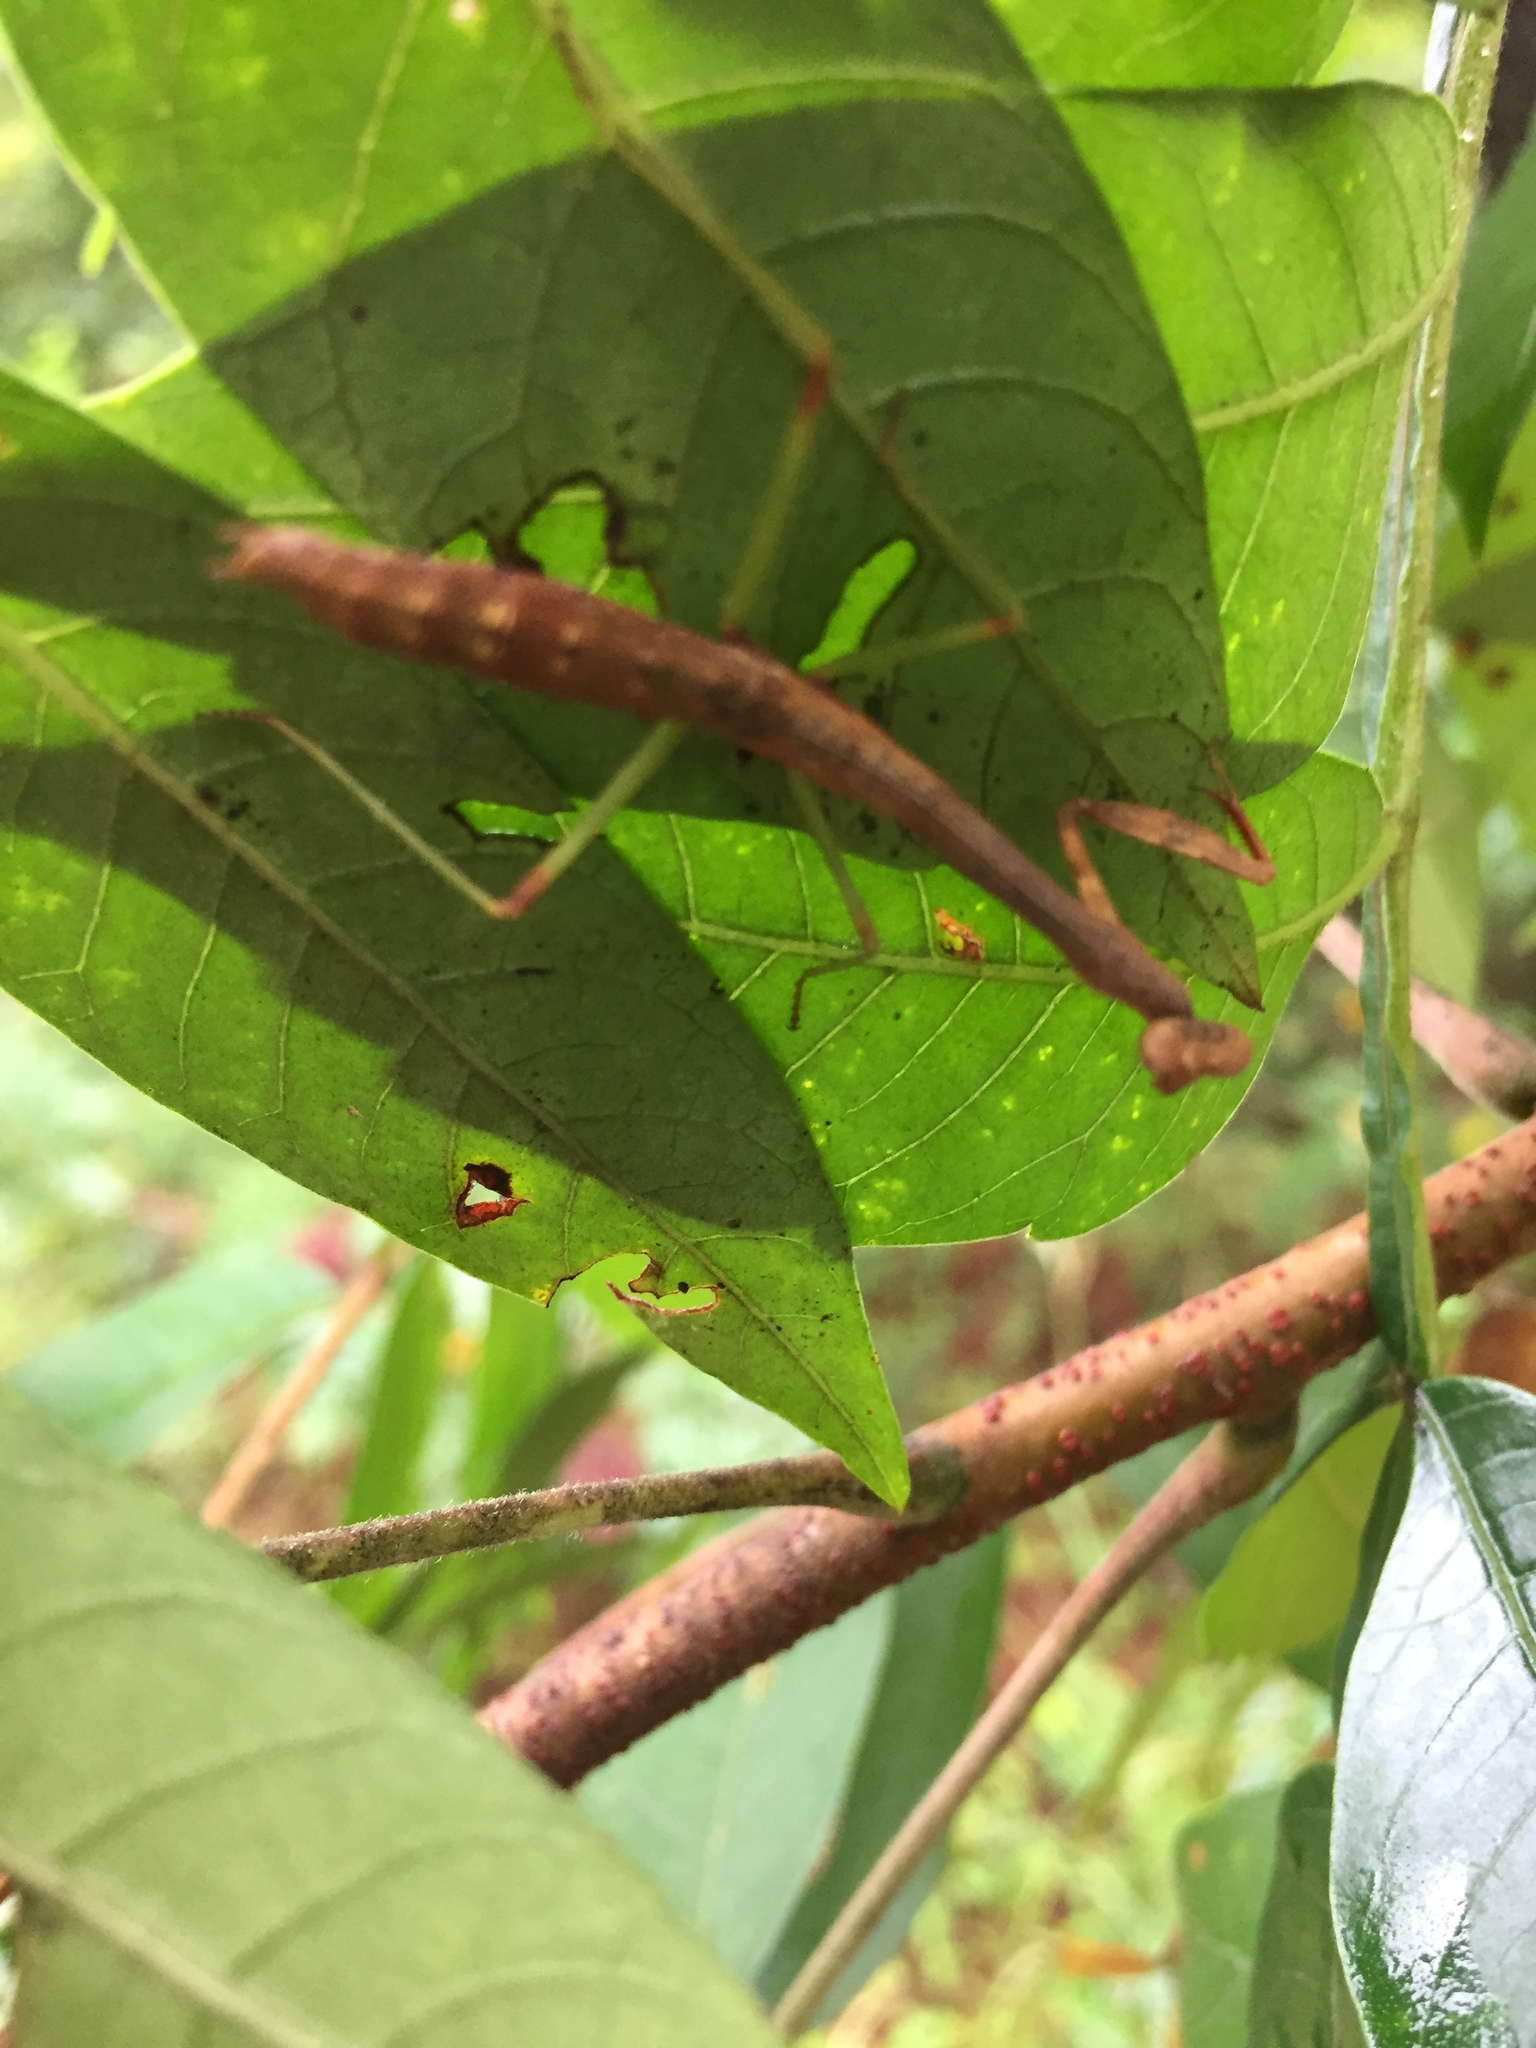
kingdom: Animalia
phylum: Arthropoda
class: Insecta
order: Mantodea
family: Mantidae
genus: Stagmomantis
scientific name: Stagmomantis carolina
